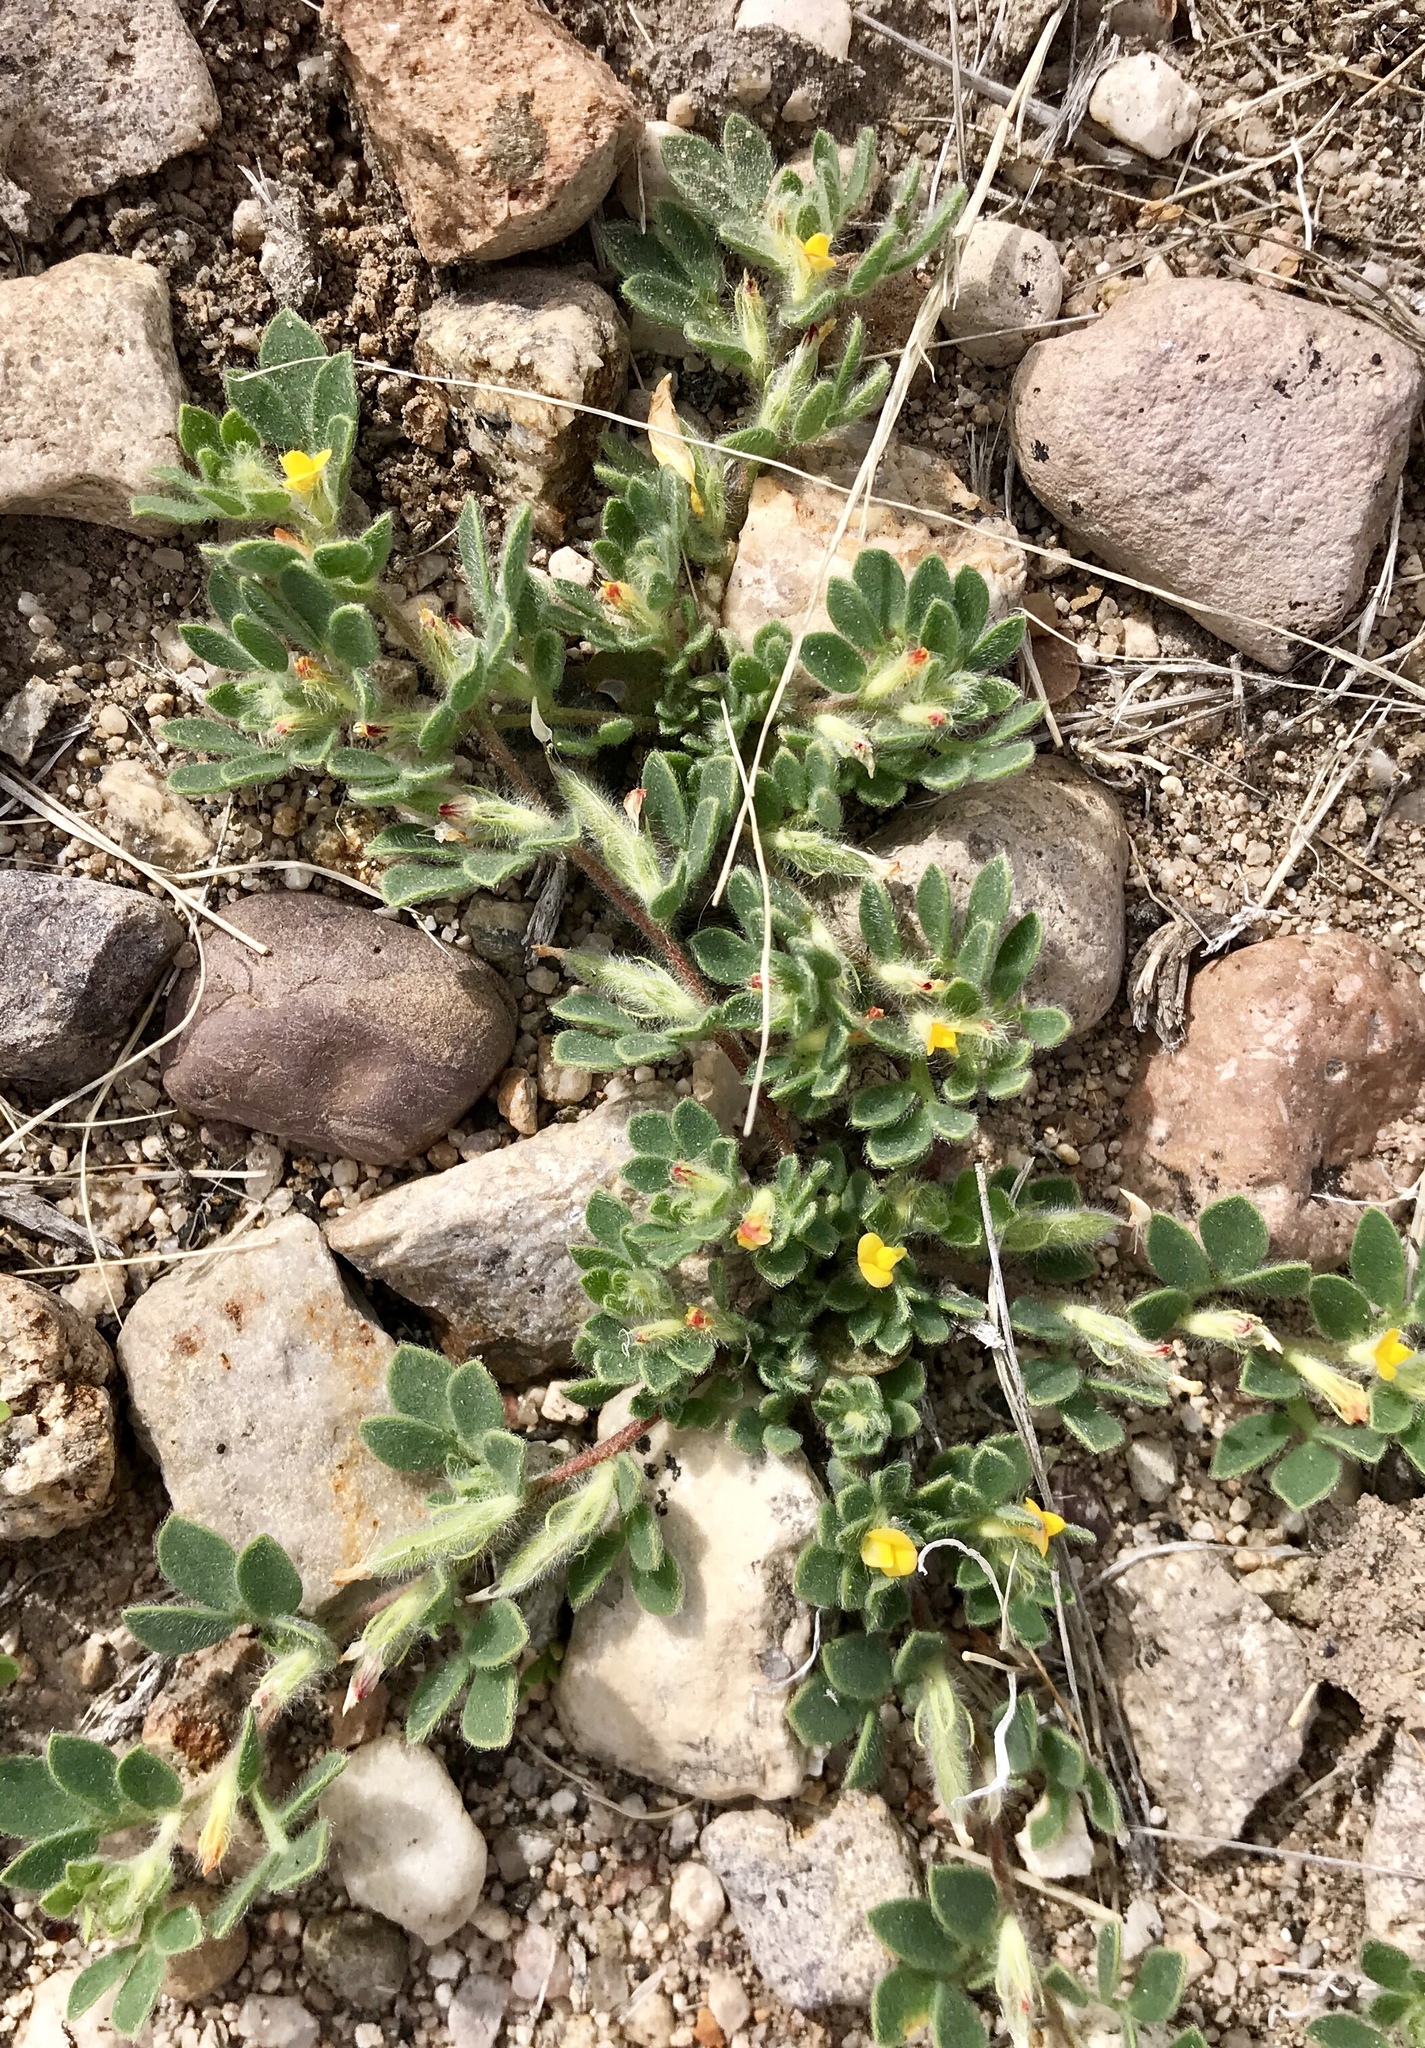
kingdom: Plantae
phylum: Tracheophyta
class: Magnoliopsida
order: Fabales
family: Fabaceae
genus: Acmispon
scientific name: Acmispon brachycarpus
